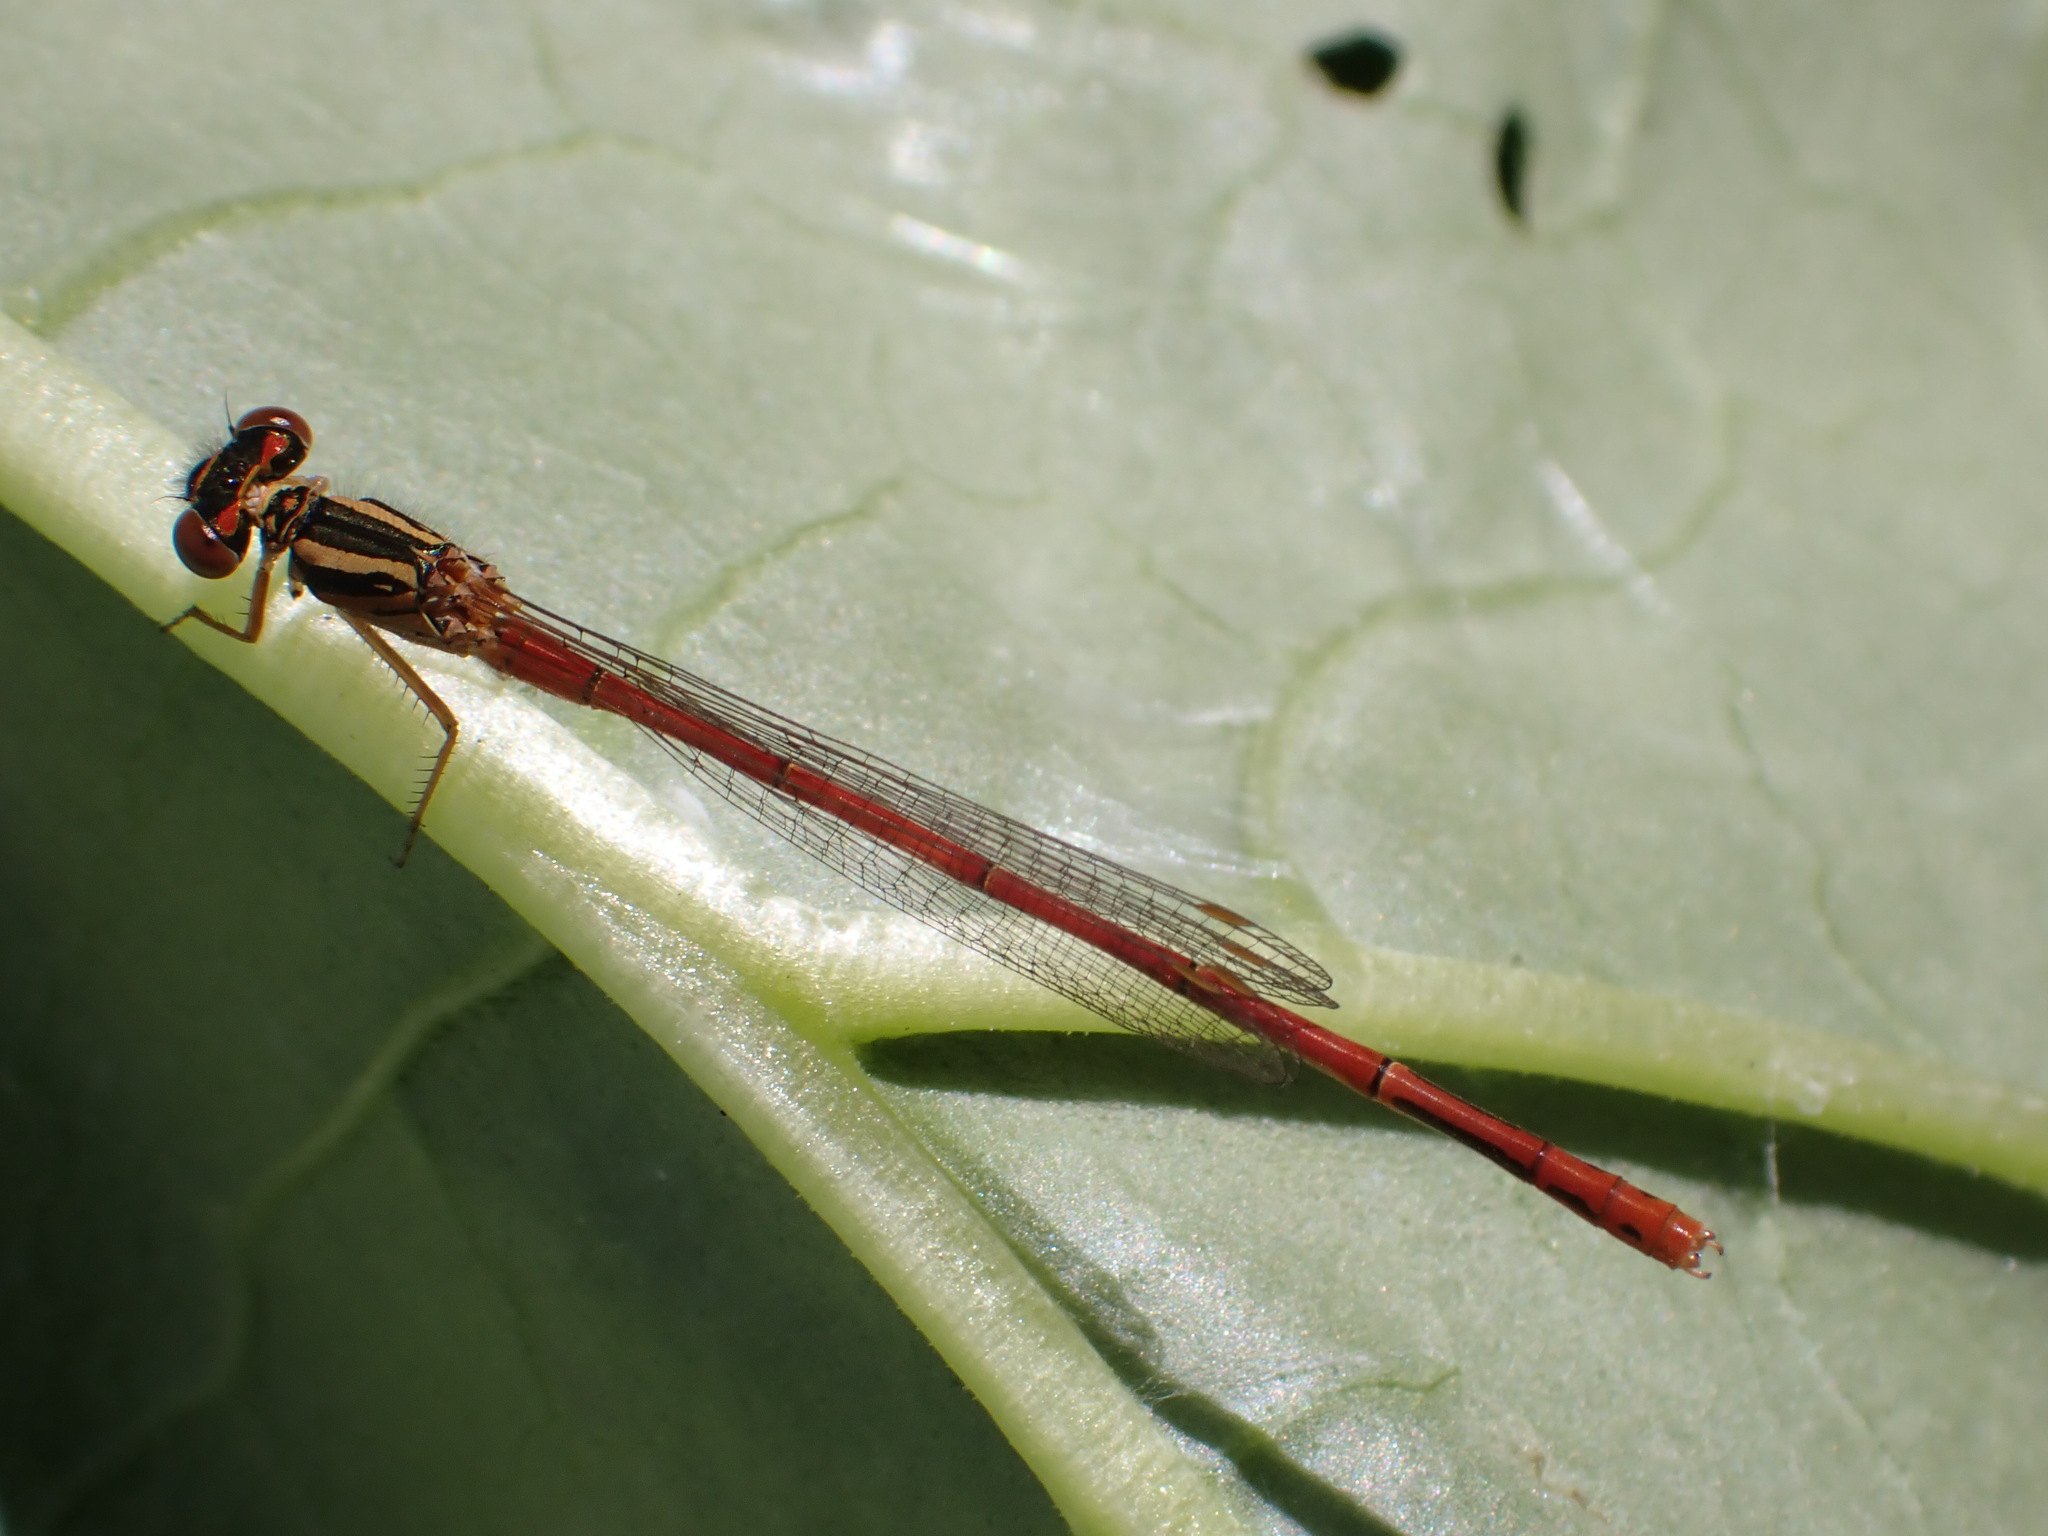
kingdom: Animalia
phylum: Arthropoda
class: Insecta
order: Odonata
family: Coenagrionidae
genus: Xanthocnemis
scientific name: Xanthocnemis zealandica
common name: Common redcoat damselfly
